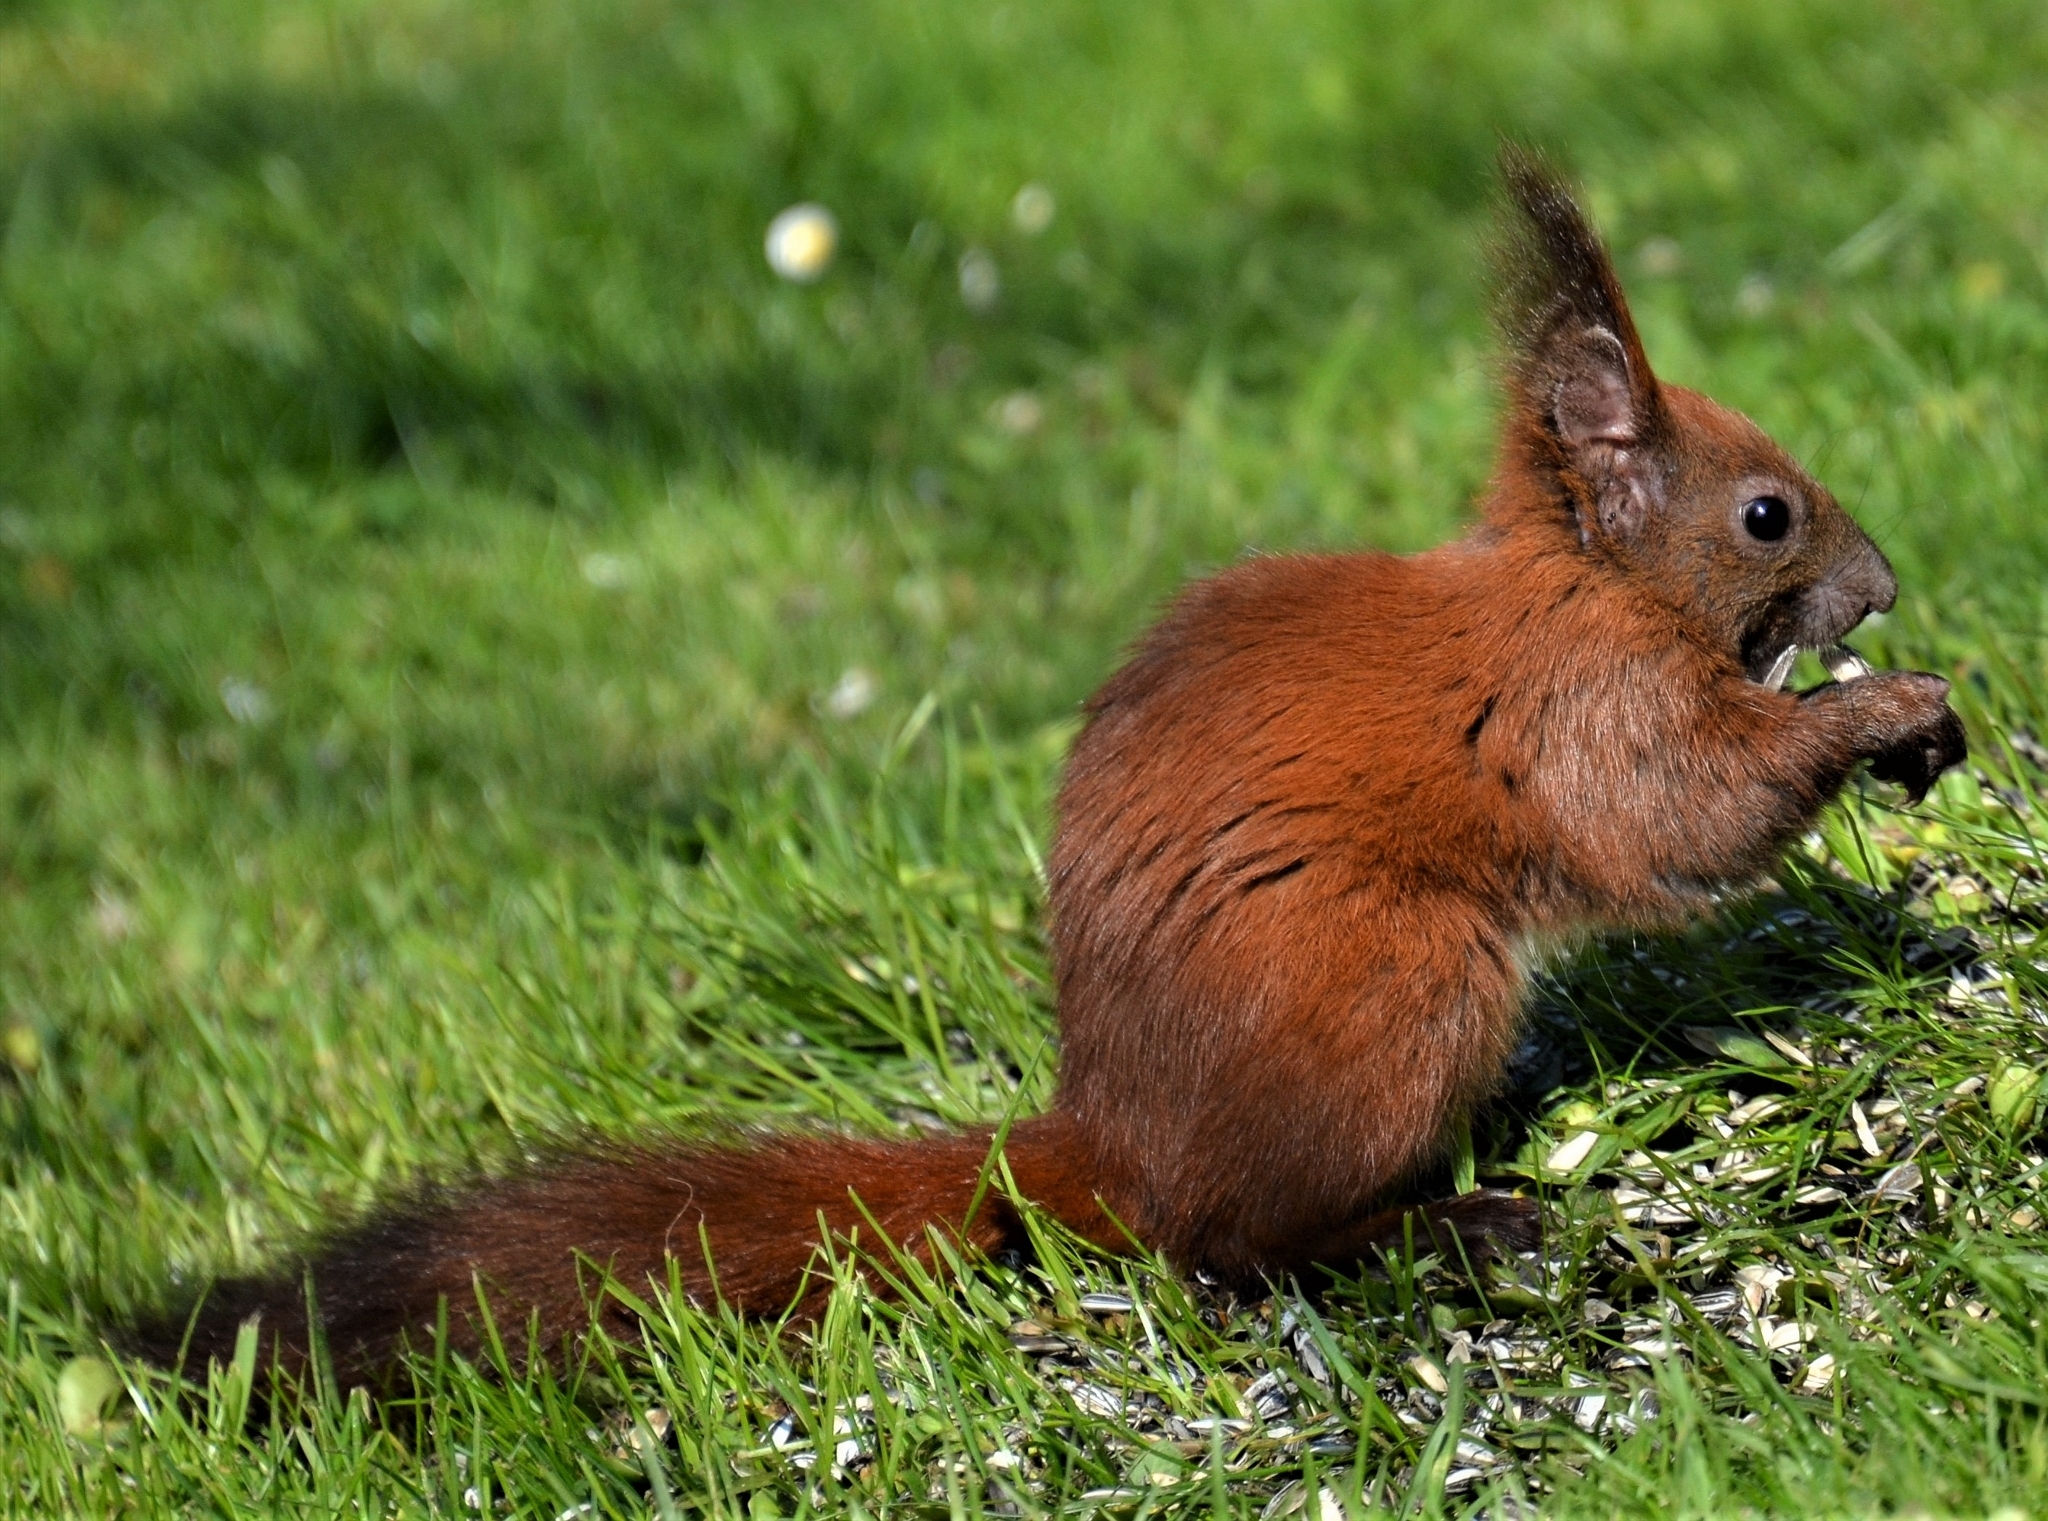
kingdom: Animalia
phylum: Chordata
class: Mammalia
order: Rodentia
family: Sciuridae
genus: Sciurus
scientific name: Sciurus vulgaris
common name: Eurasian red squirrel
